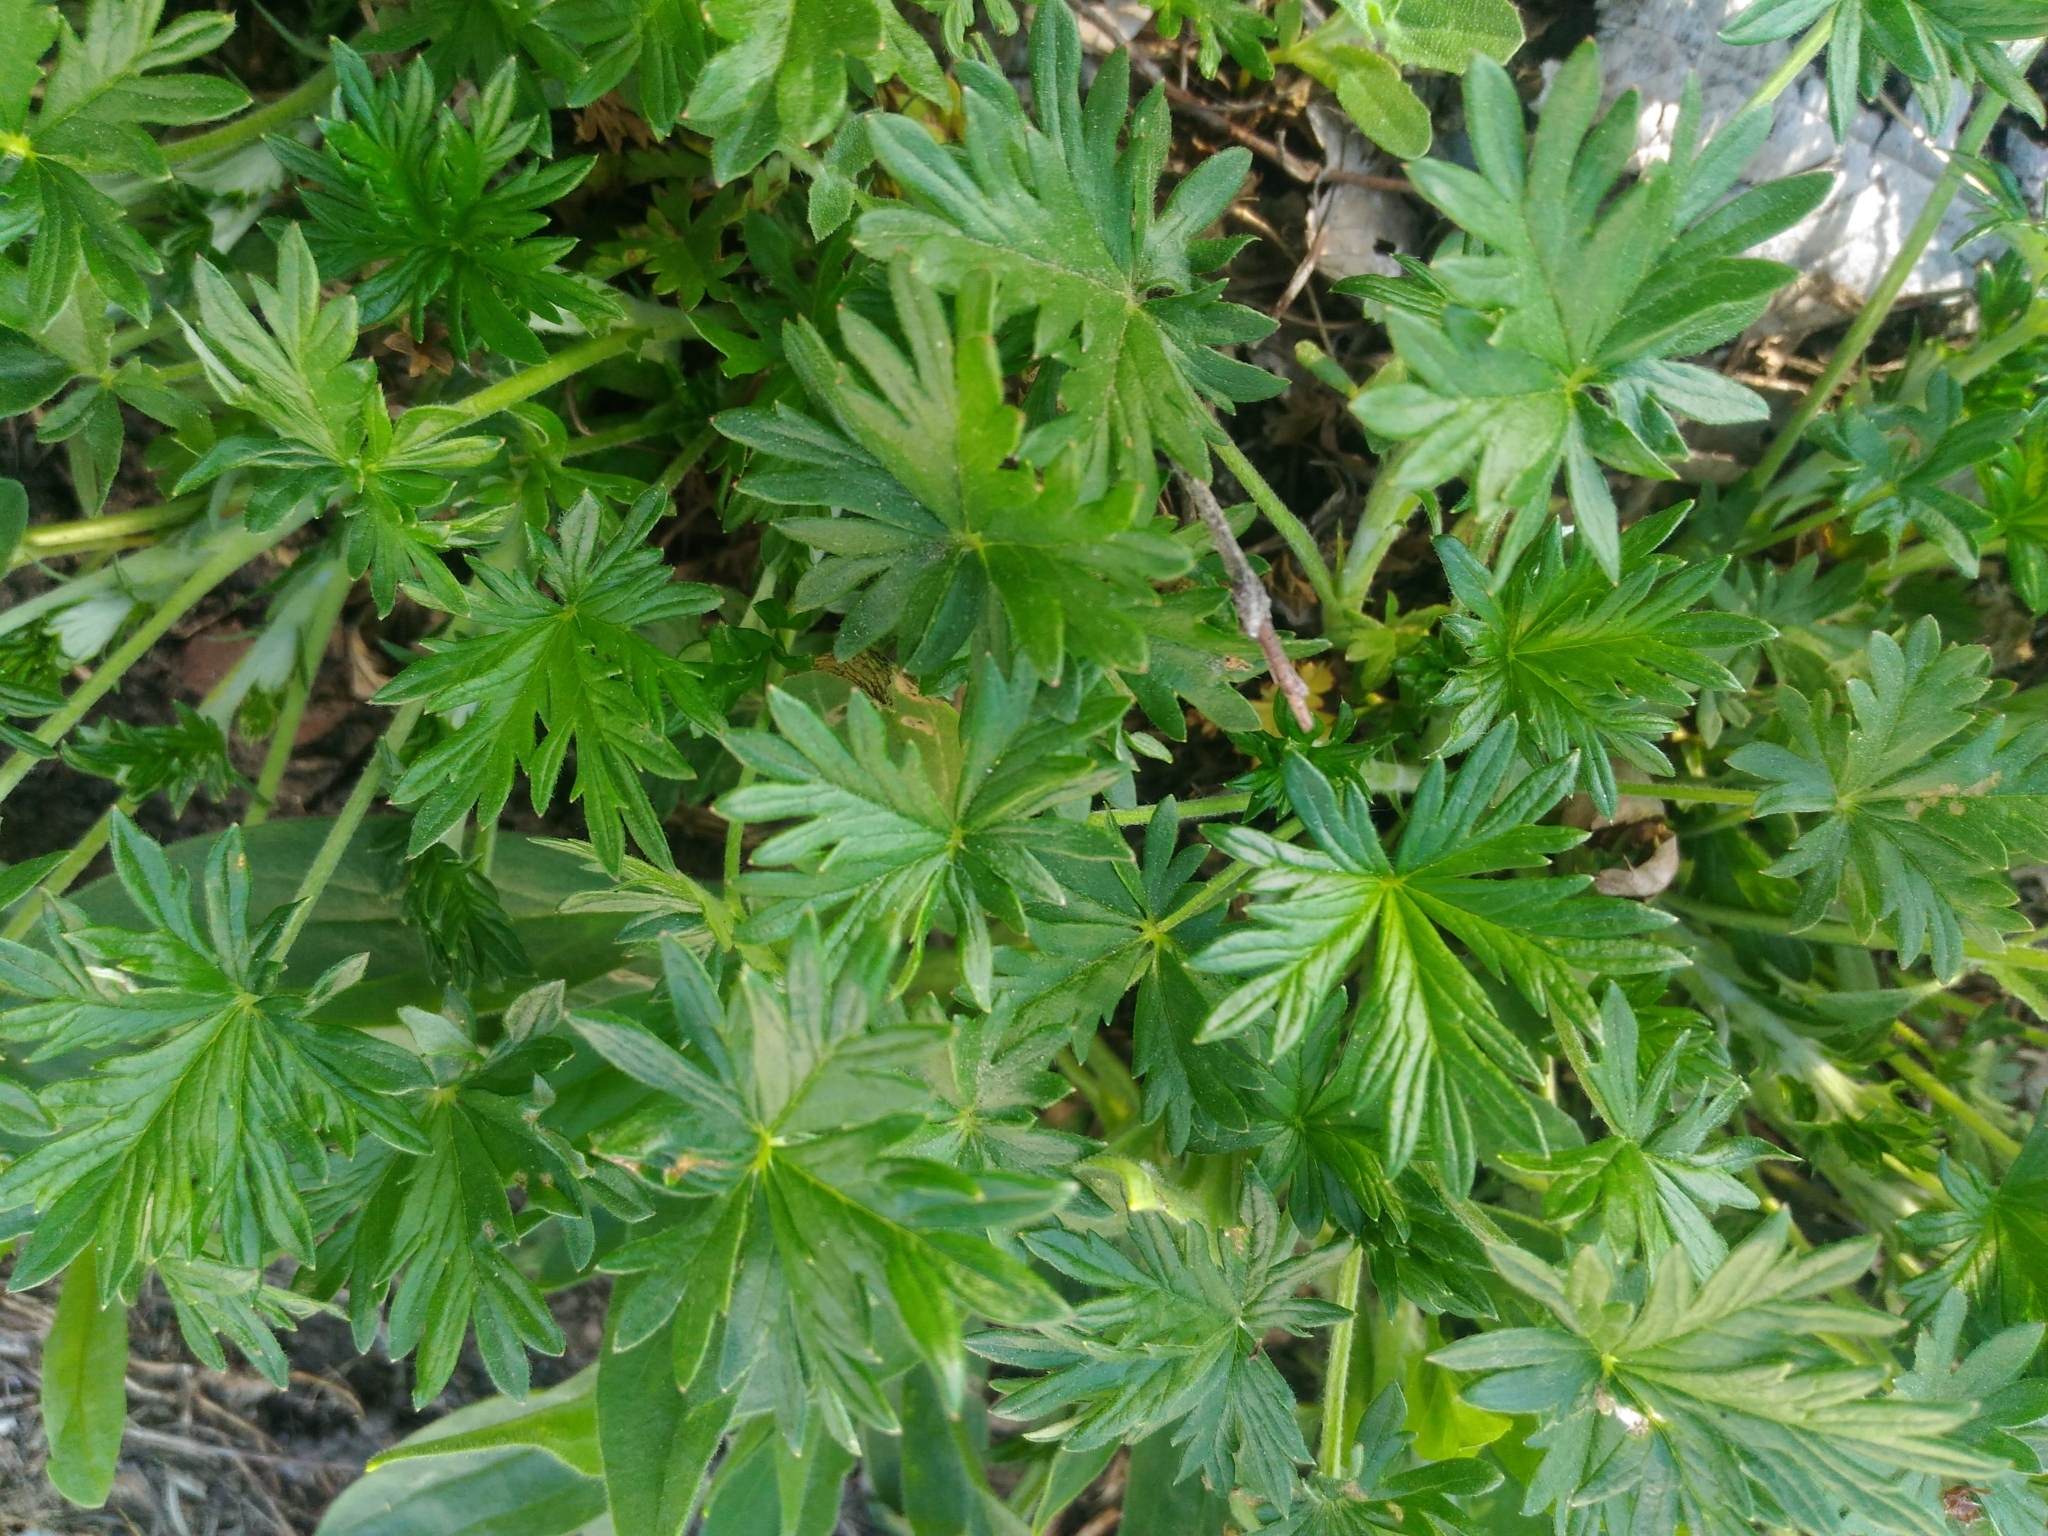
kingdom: Plantae
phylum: Tracheophyta
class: Magnoliopsida
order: Rosales
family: Rosaceae
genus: Potentilla
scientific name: Potentilla argentea
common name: Hoary cinquefoil
